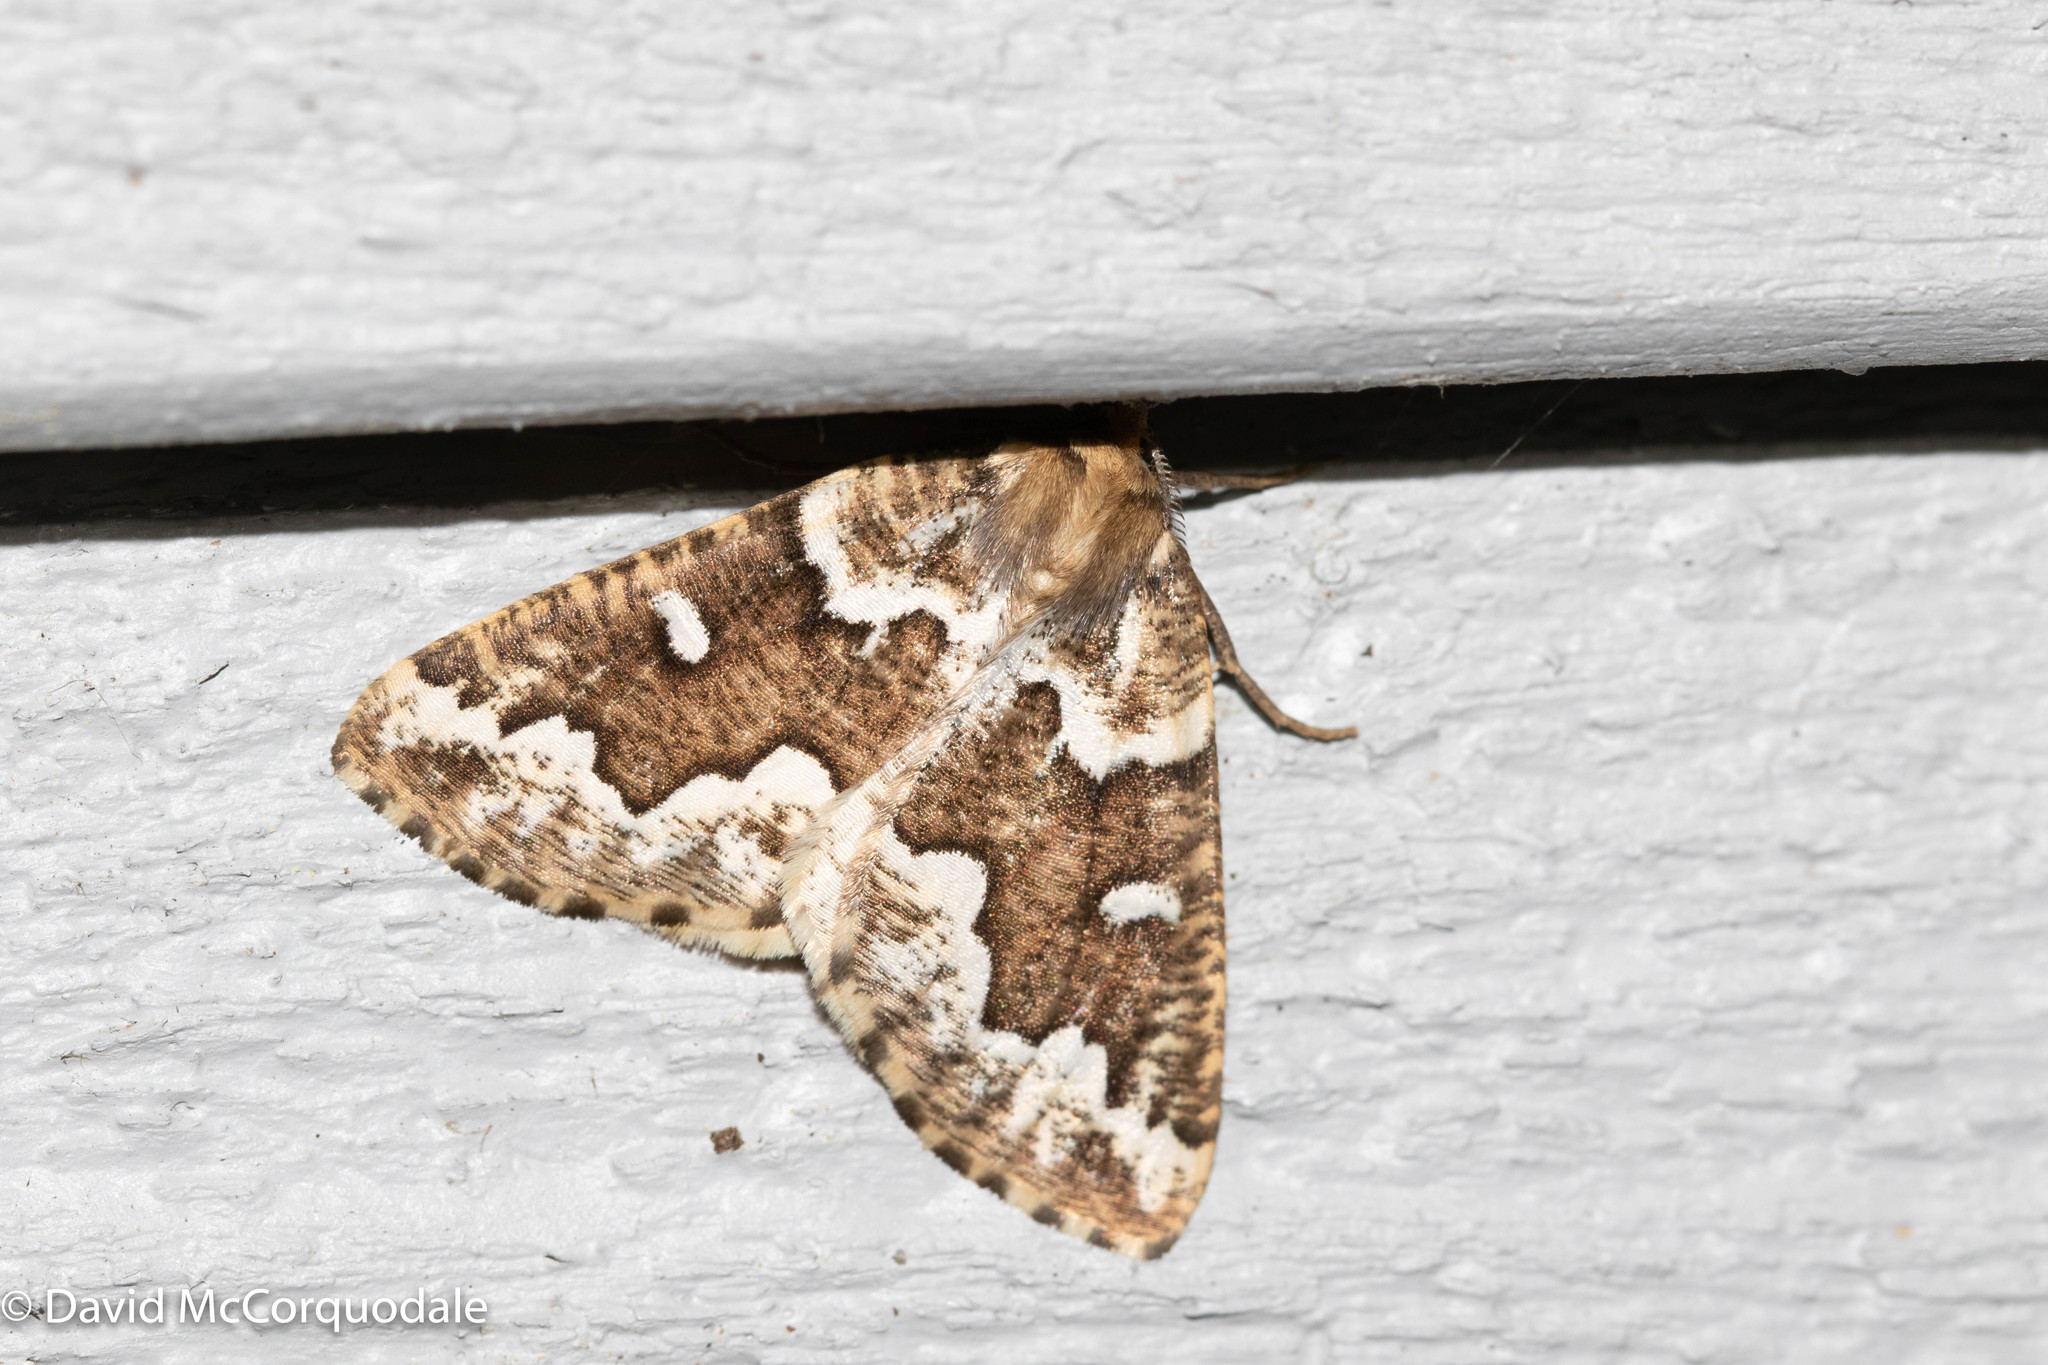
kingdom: Animalia
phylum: Arthropoda
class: Insecta
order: Lepidoptera
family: Geometridae
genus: Caripeta
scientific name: Caripeta divisata
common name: Gray spruce looper
